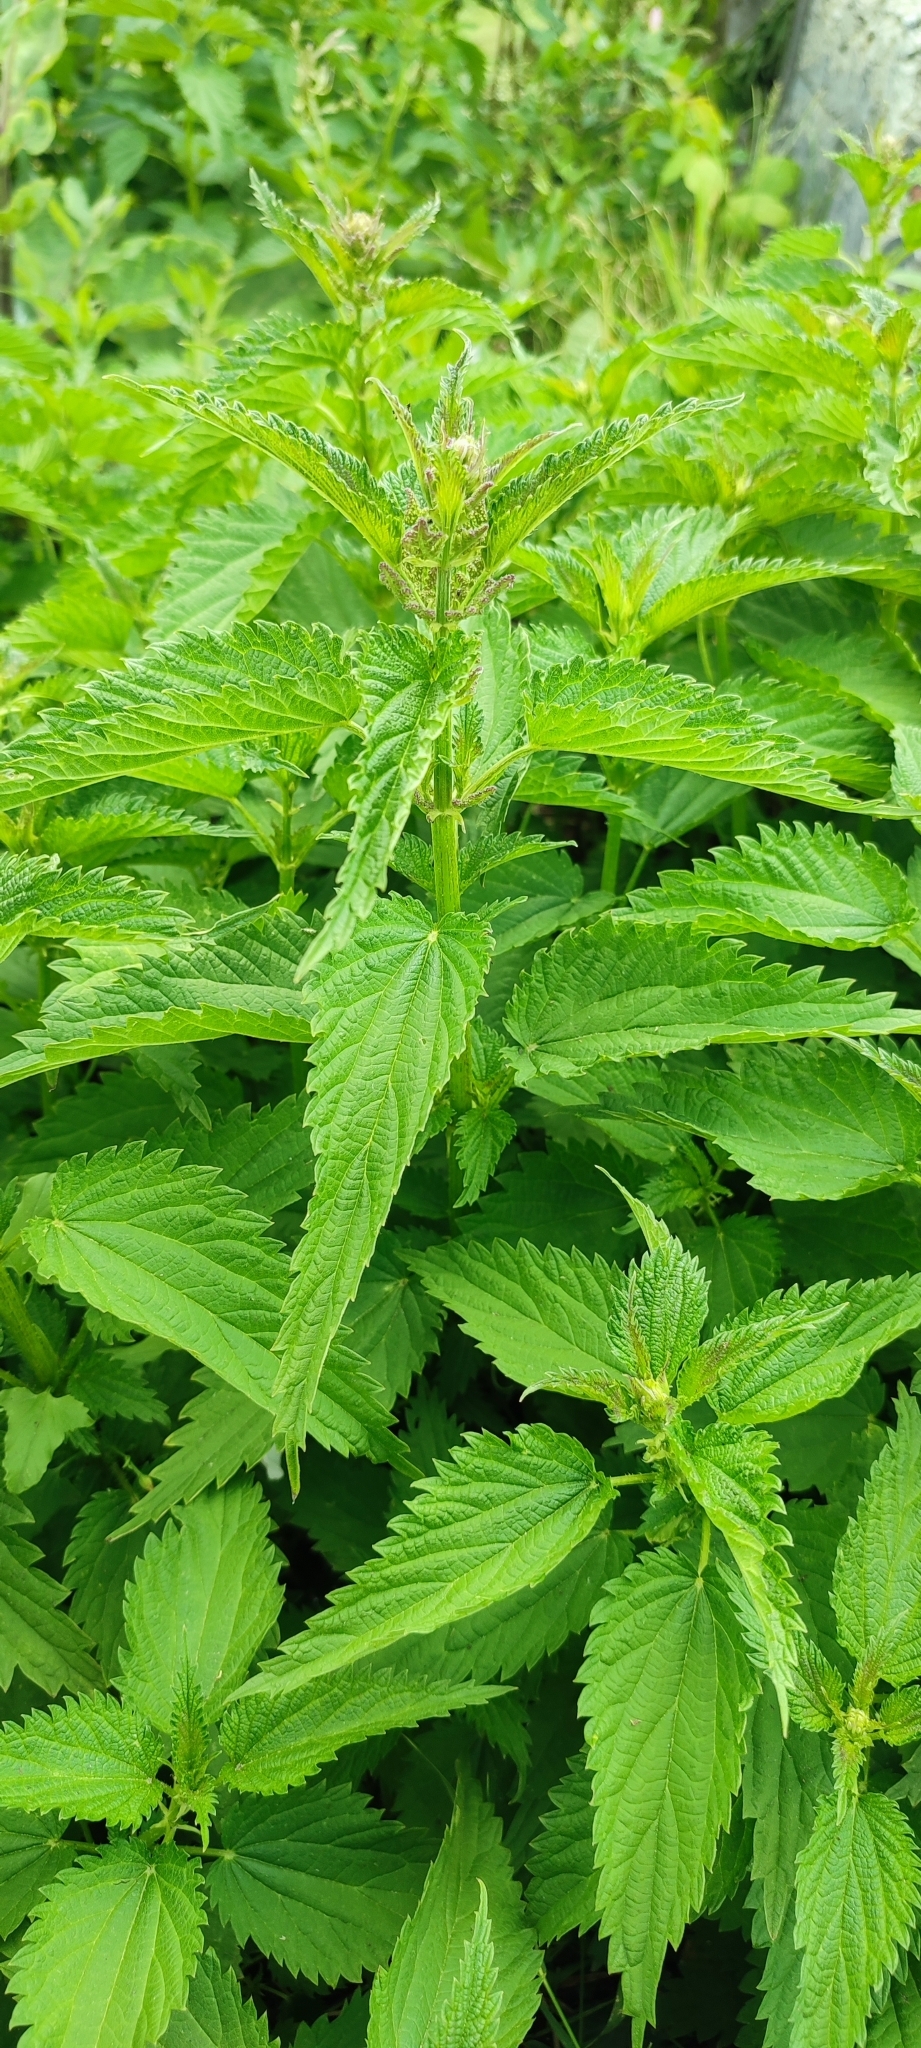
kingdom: Plantae
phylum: Tracheophyta
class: Magnoliopsida
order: Rosales
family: Urticaceae
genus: Urtica
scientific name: Urtica galeopsifolia
